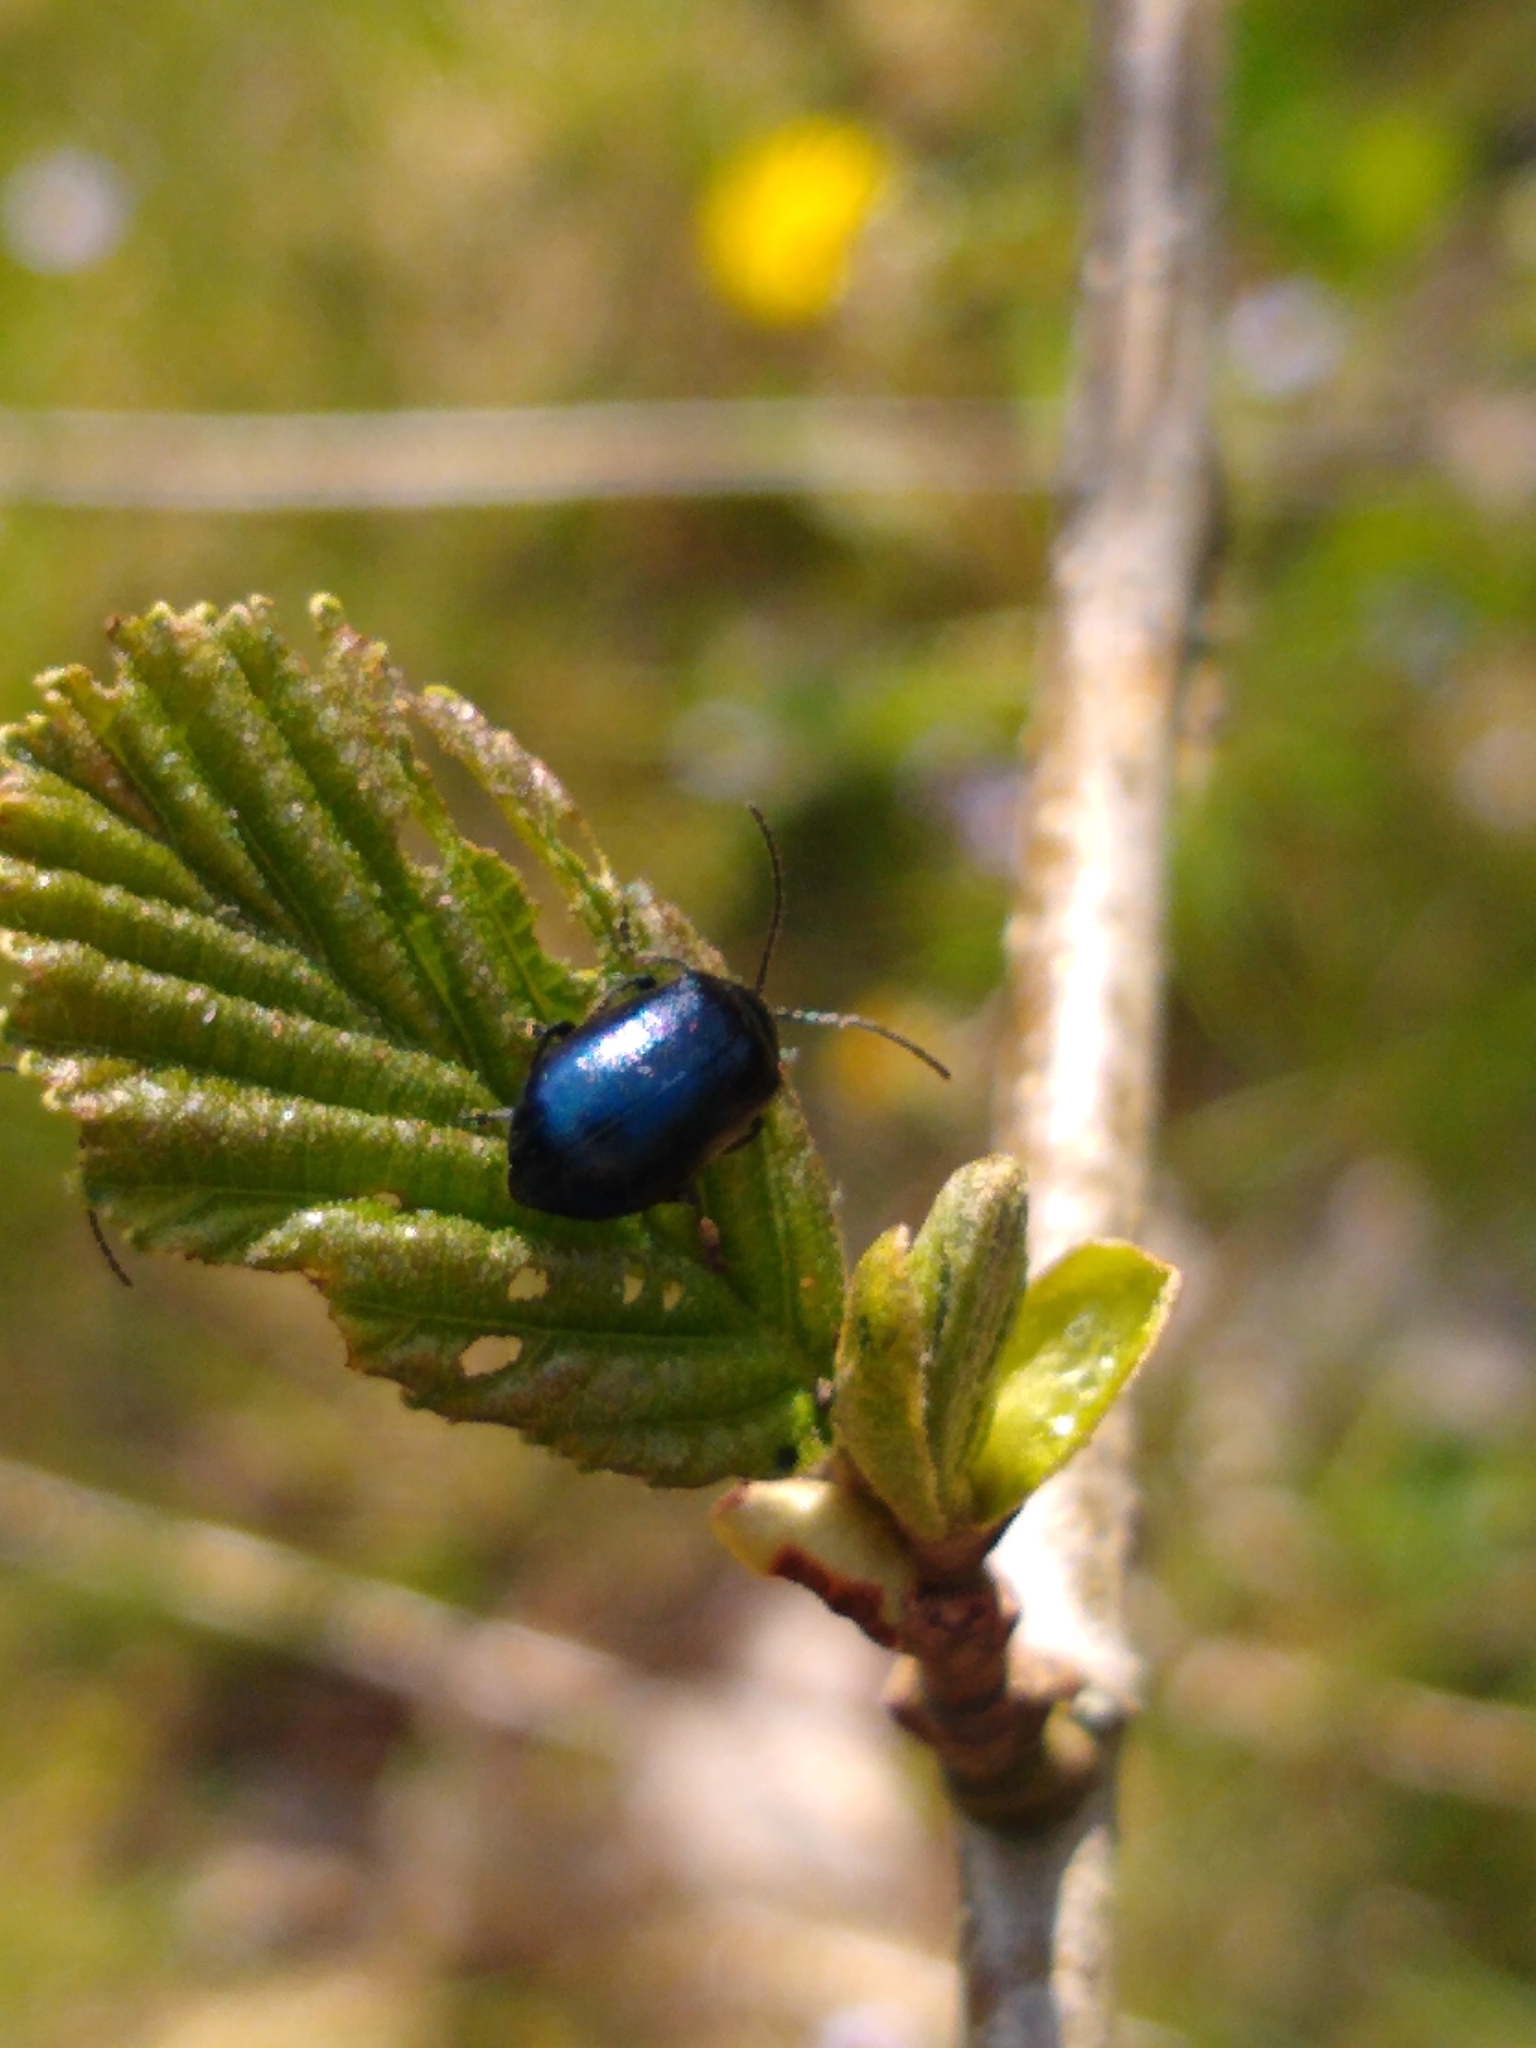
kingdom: Animalia
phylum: Arthropoda
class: Insecta
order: Coleoptera
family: Chrysomelidae
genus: Agelastica
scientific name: Agelastica alni
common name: Alder leaf beetle
